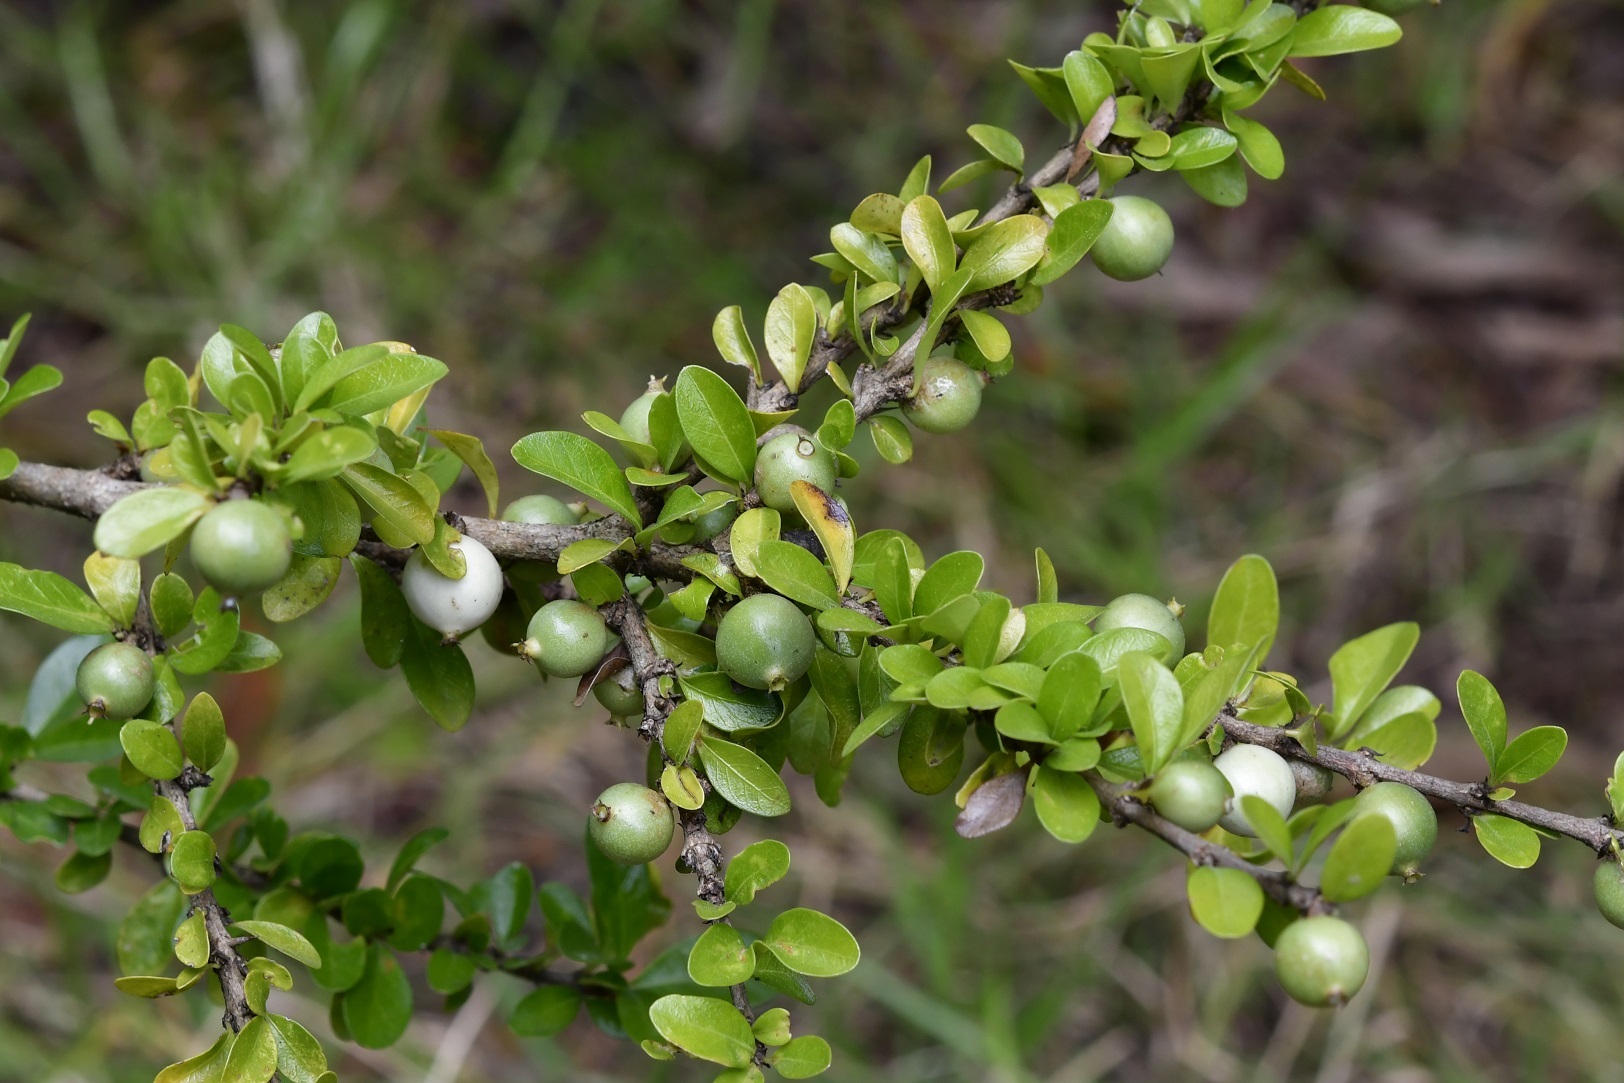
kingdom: Plantae
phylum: Tracheophyta
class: Magnoliopsida
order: Gentianales
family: Rubiaceae
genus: Randia
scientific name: Randia chiapensis
